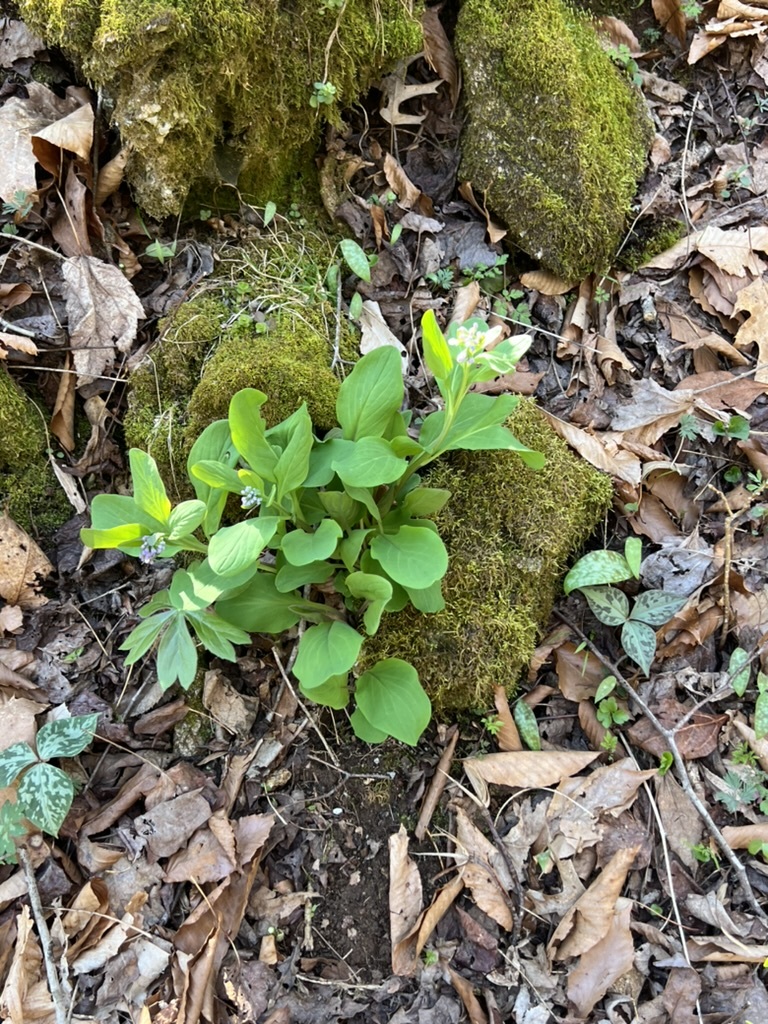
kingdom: Plantae
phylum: Tracheophyta
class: Magnoliopsida
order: Boraginales
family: Boraginaceae
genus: Mertensia
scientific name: Mertensia virginica
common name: Virginia bluebells
